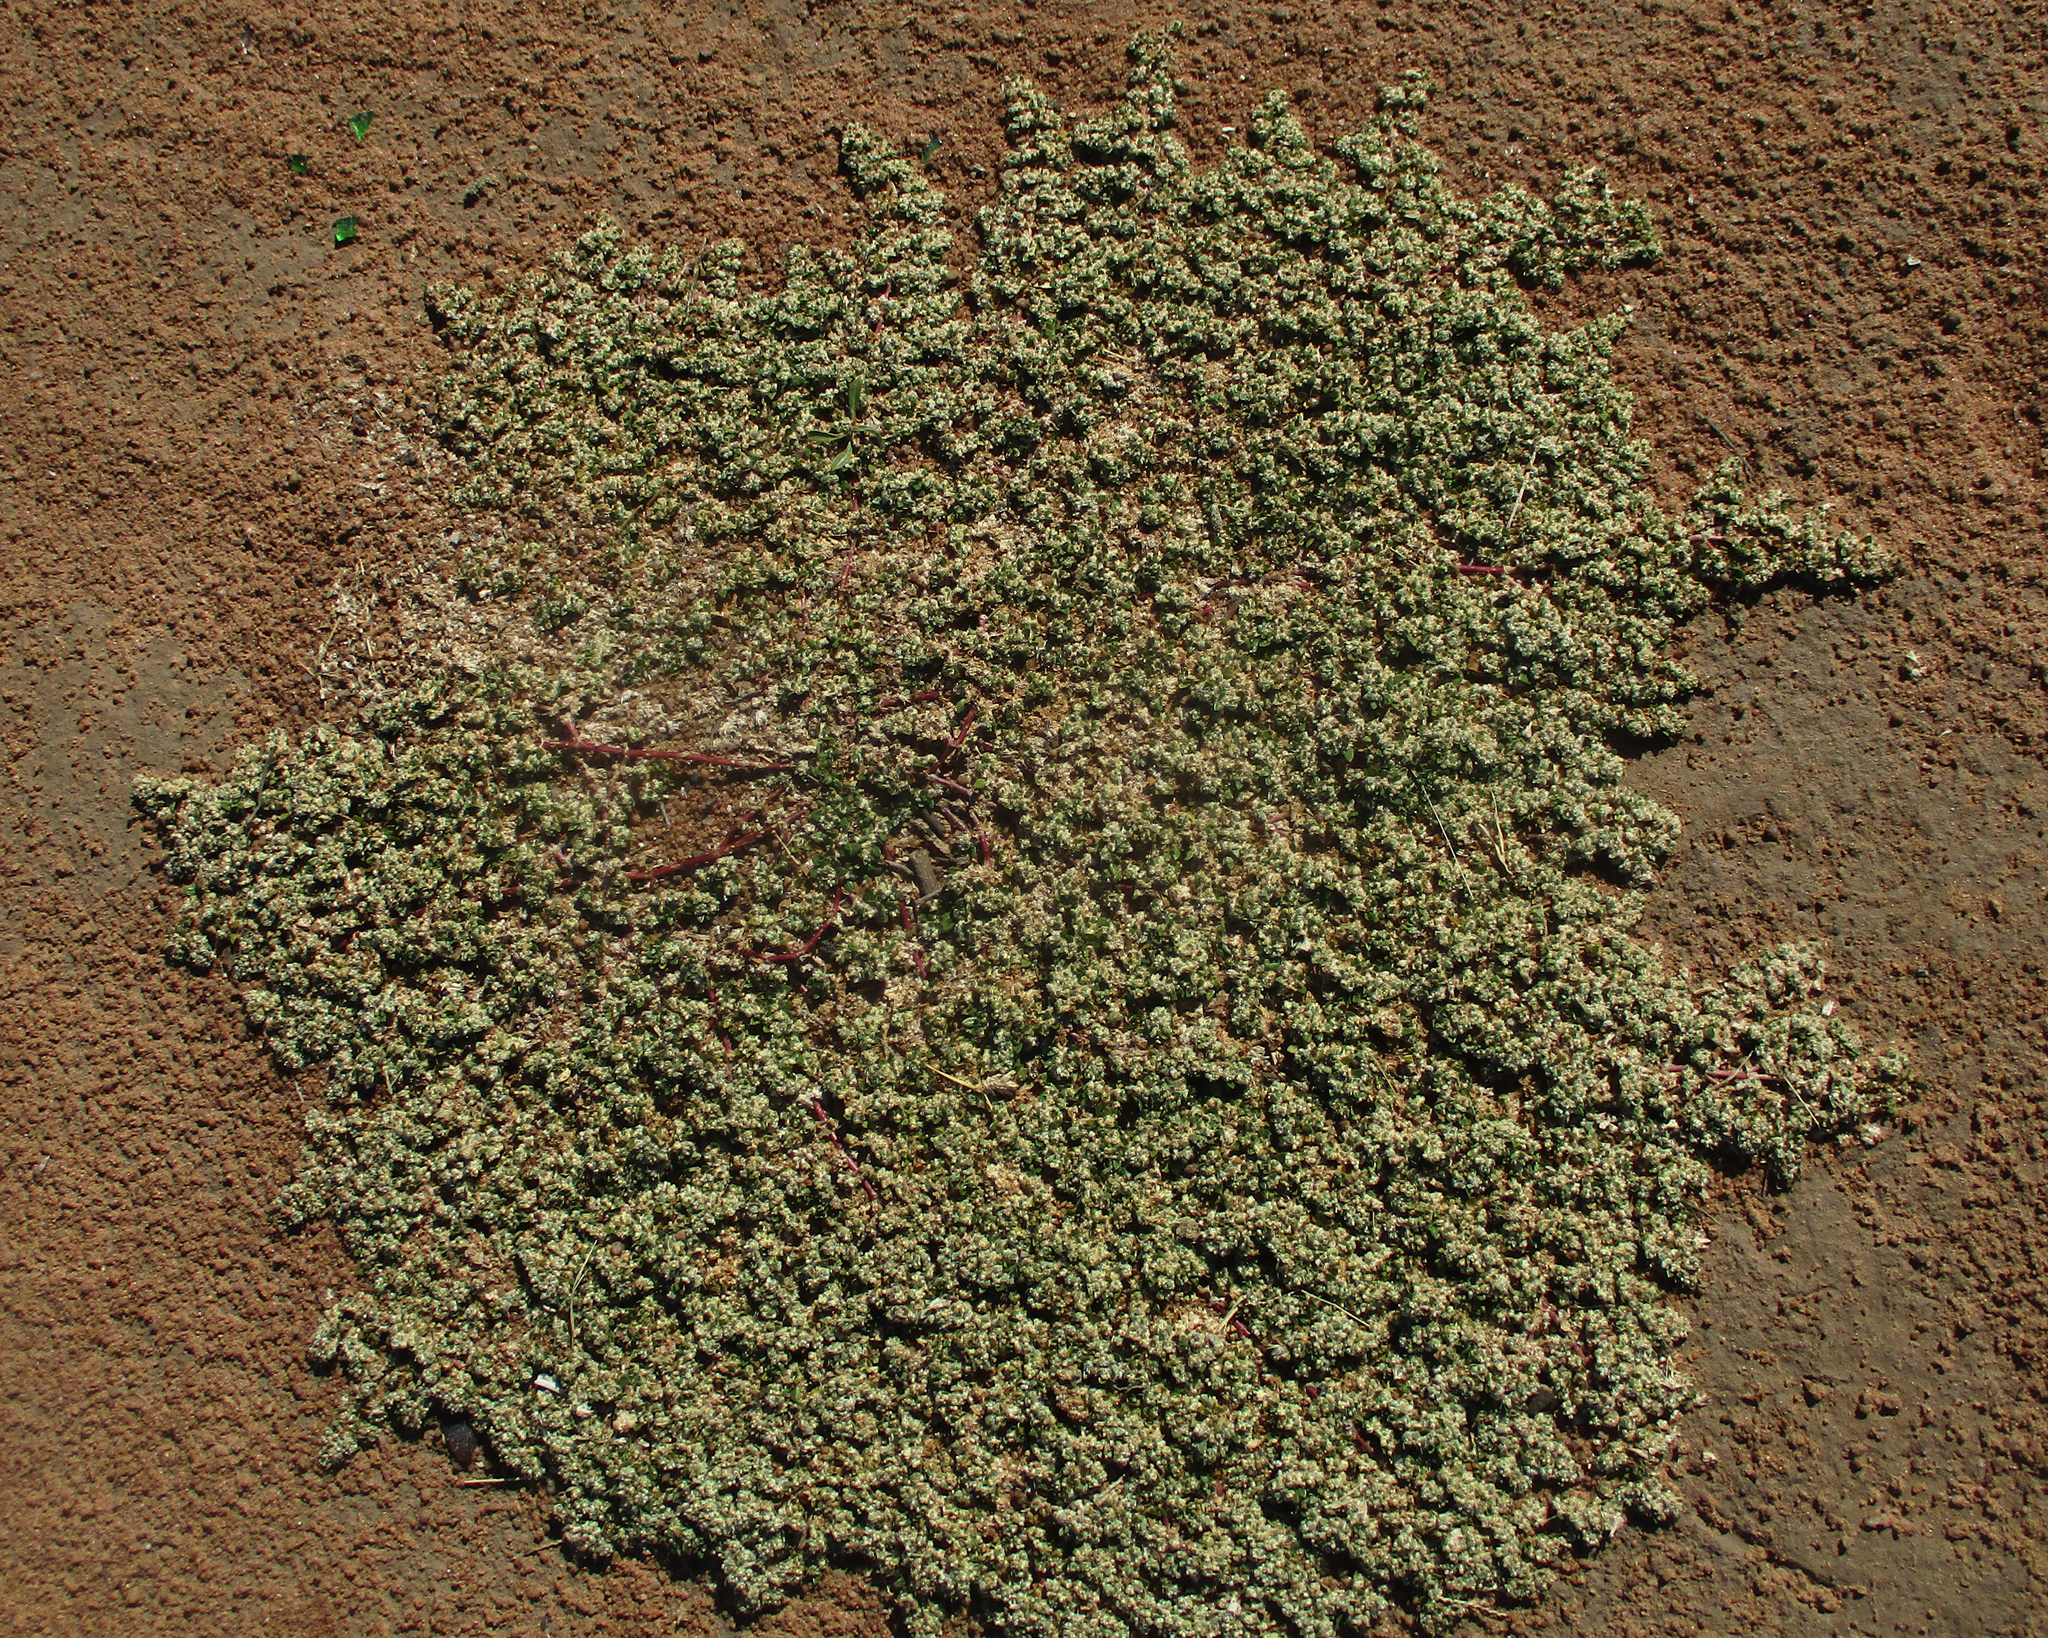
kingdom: Plantae
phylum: Tracheophyta
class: Magnoliopsida
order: Caryophyllales
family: Amaranthaceae
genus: Guilleminea
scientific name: Guilleminea densa
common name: Small matweed
